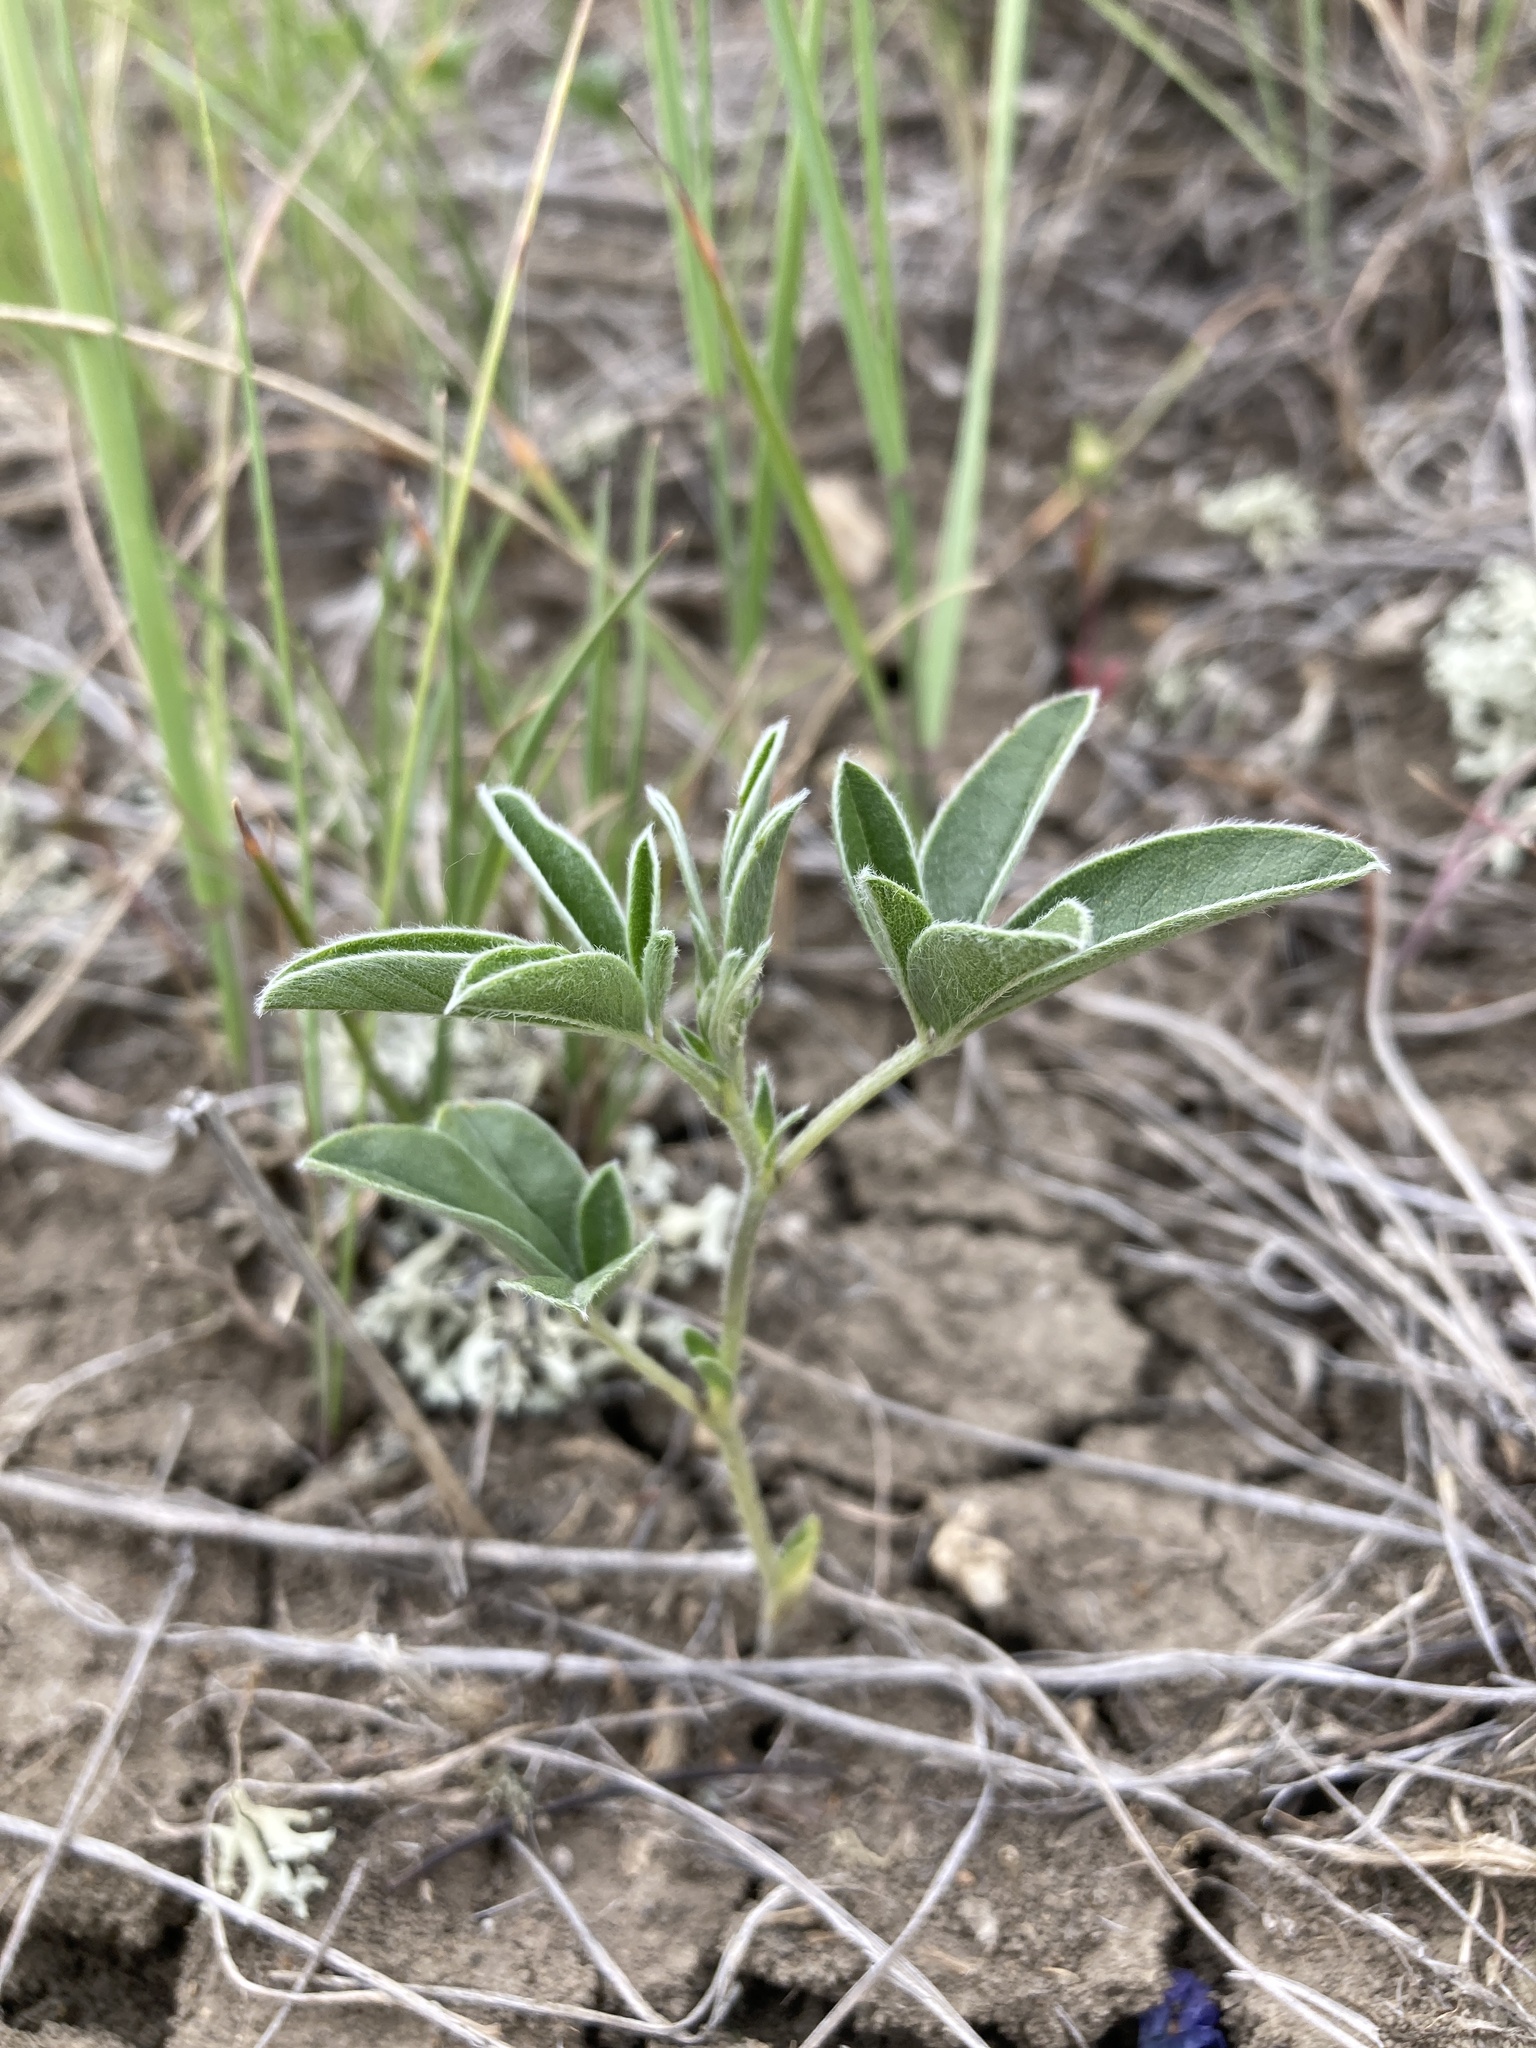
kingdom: Plantae
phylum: Tracheophyta
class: Magnoliopsida
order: Fabales
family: Fabaceae
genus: Pediomelum
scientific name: Pediomelum argophyllum
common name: Silver-leaved indian breadroot
